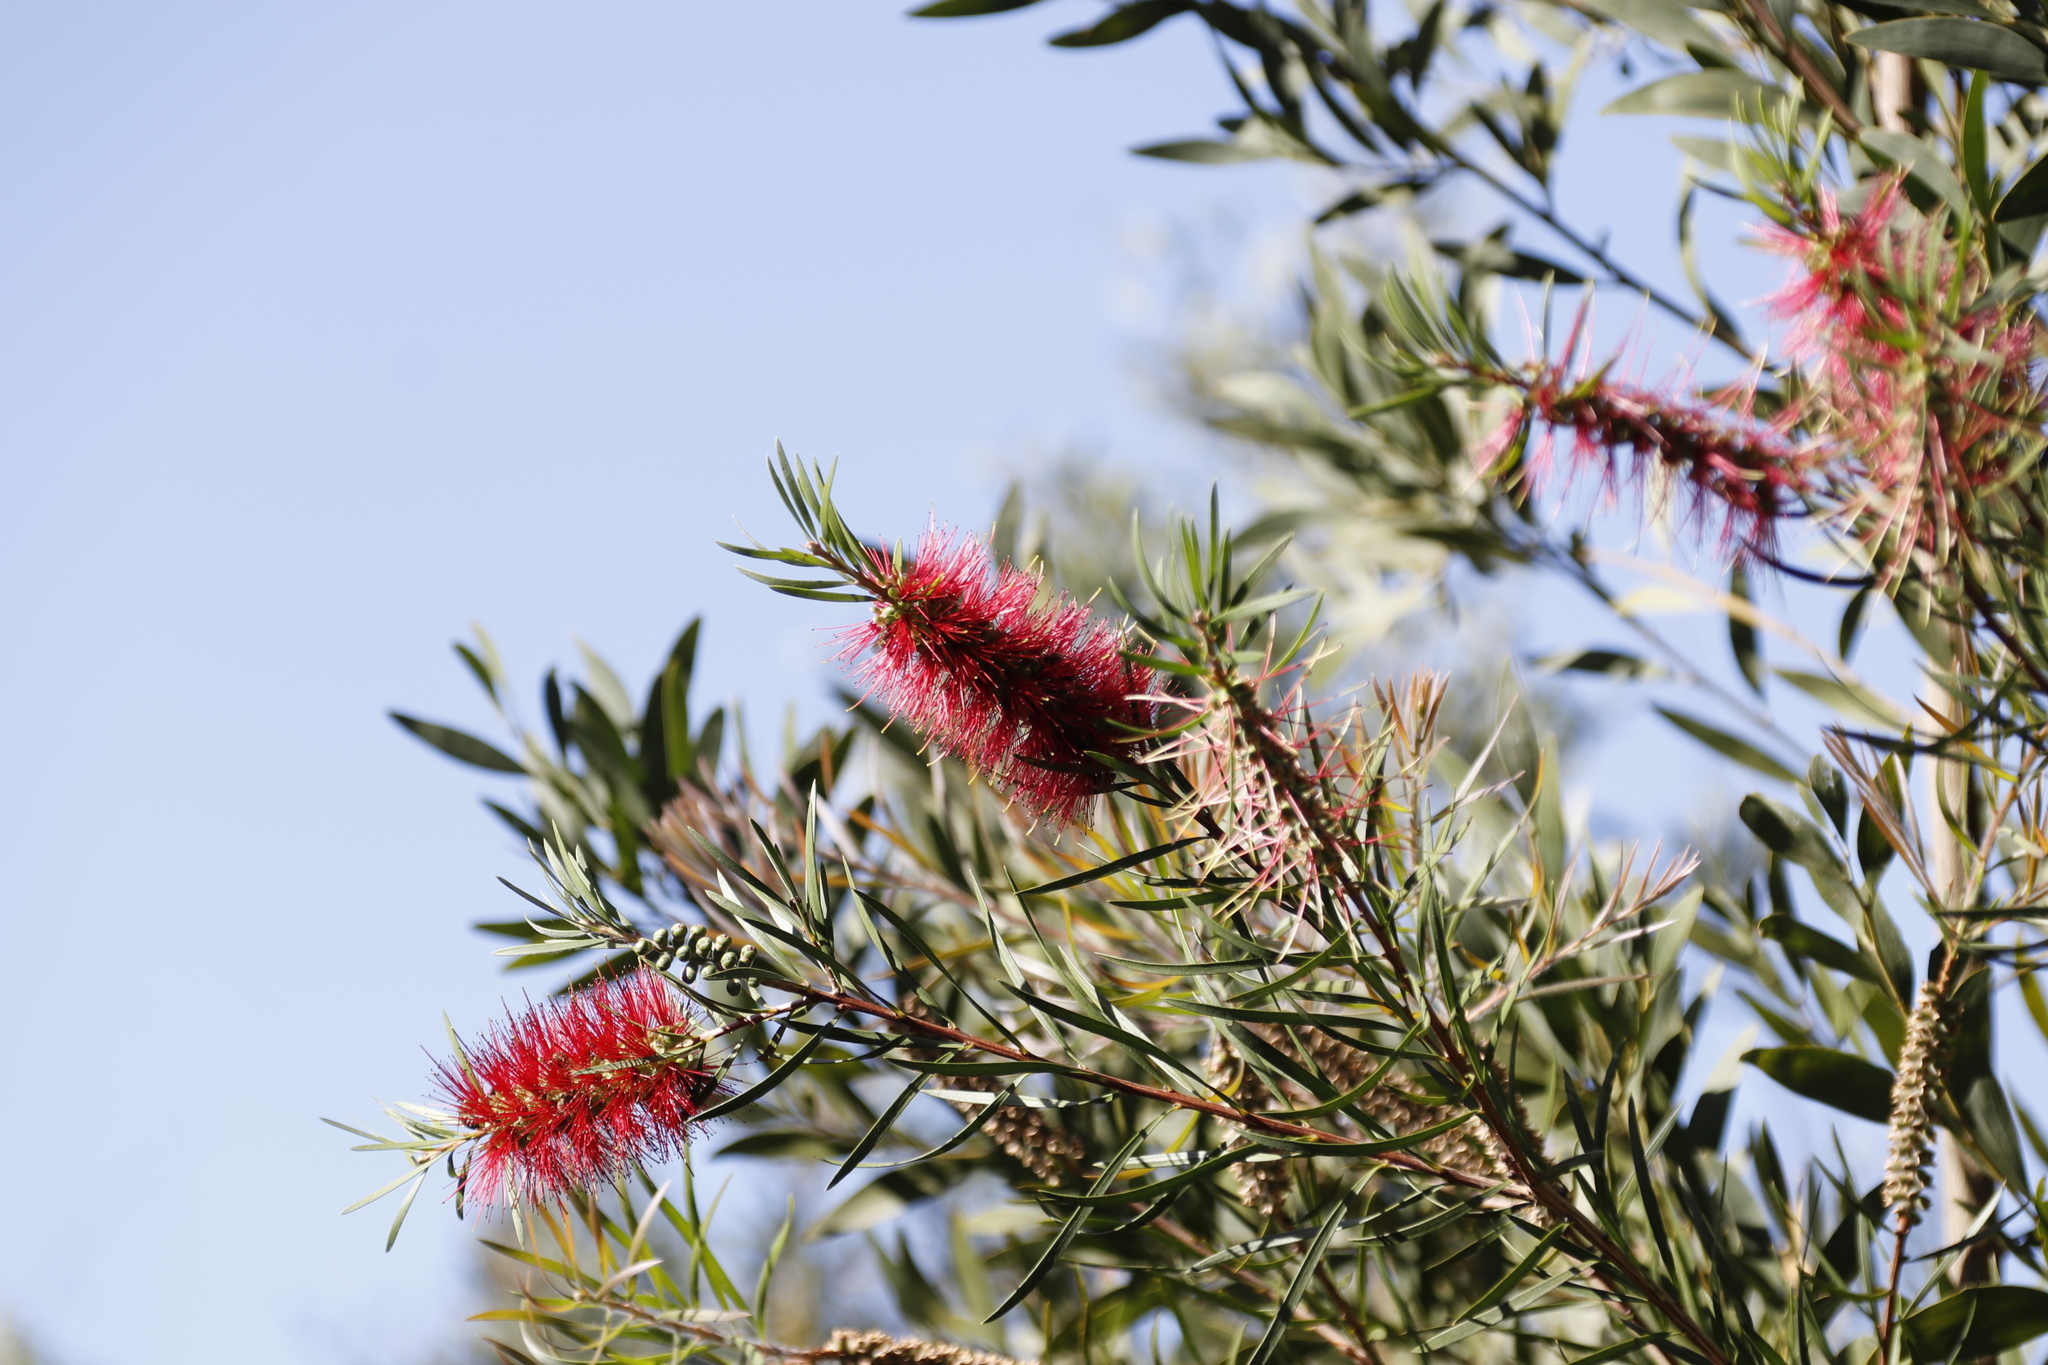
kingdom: Plantae
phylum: Tracheophyta
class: Magnoliopsida
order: Myrtales
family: Myrtaceae
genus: Callistemon
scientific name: Callistemon linearis
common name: Narrow-leaf bottlebrush
